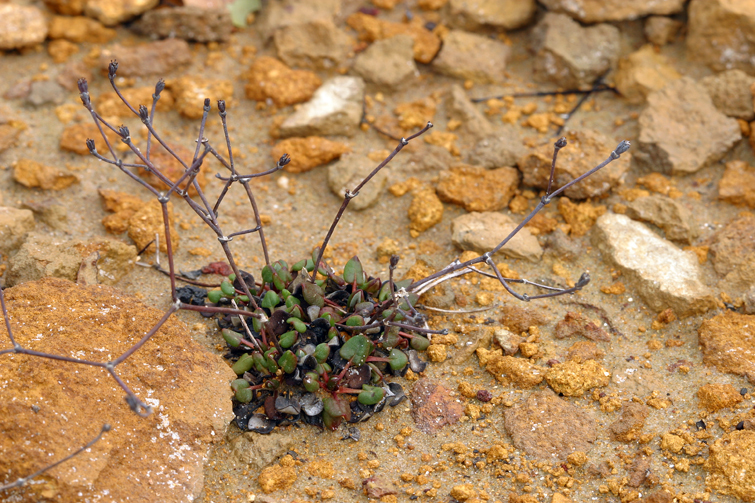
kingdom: Plantae
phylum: Tracheophyta
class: Magnoliopsida
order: Caryophyllales
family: Polygonaceae
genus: Eriogonum
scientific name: Eriogonum apricum
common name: Ione wild buckwheat
